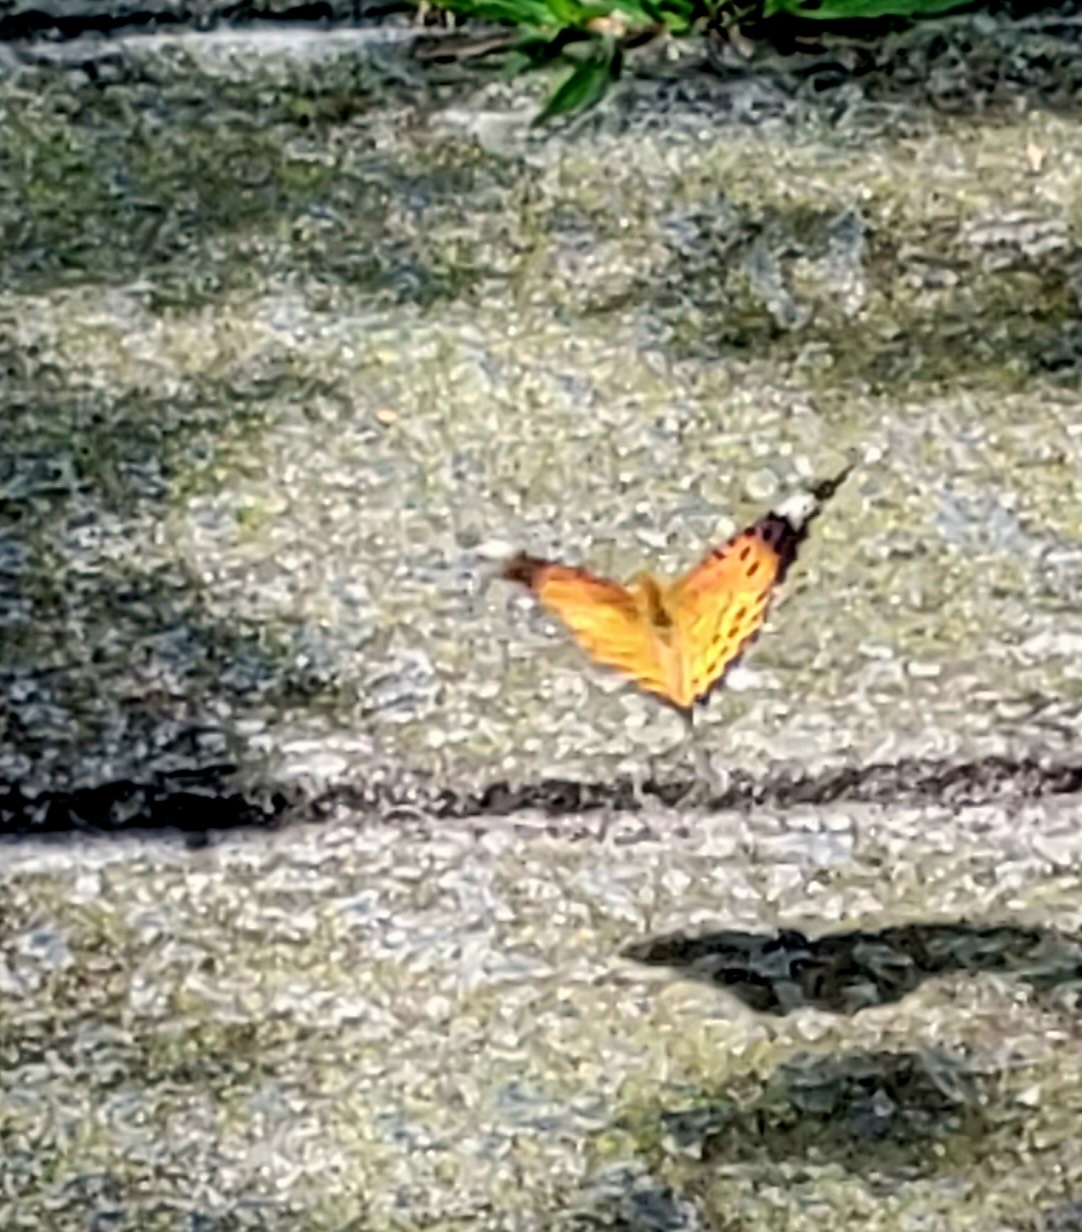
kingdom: Animalia
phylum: Arthropoda
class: Insecta
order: Lepidoptera
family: Nymphalidae
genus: Argynnis
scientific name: Argynnis hyperbius
